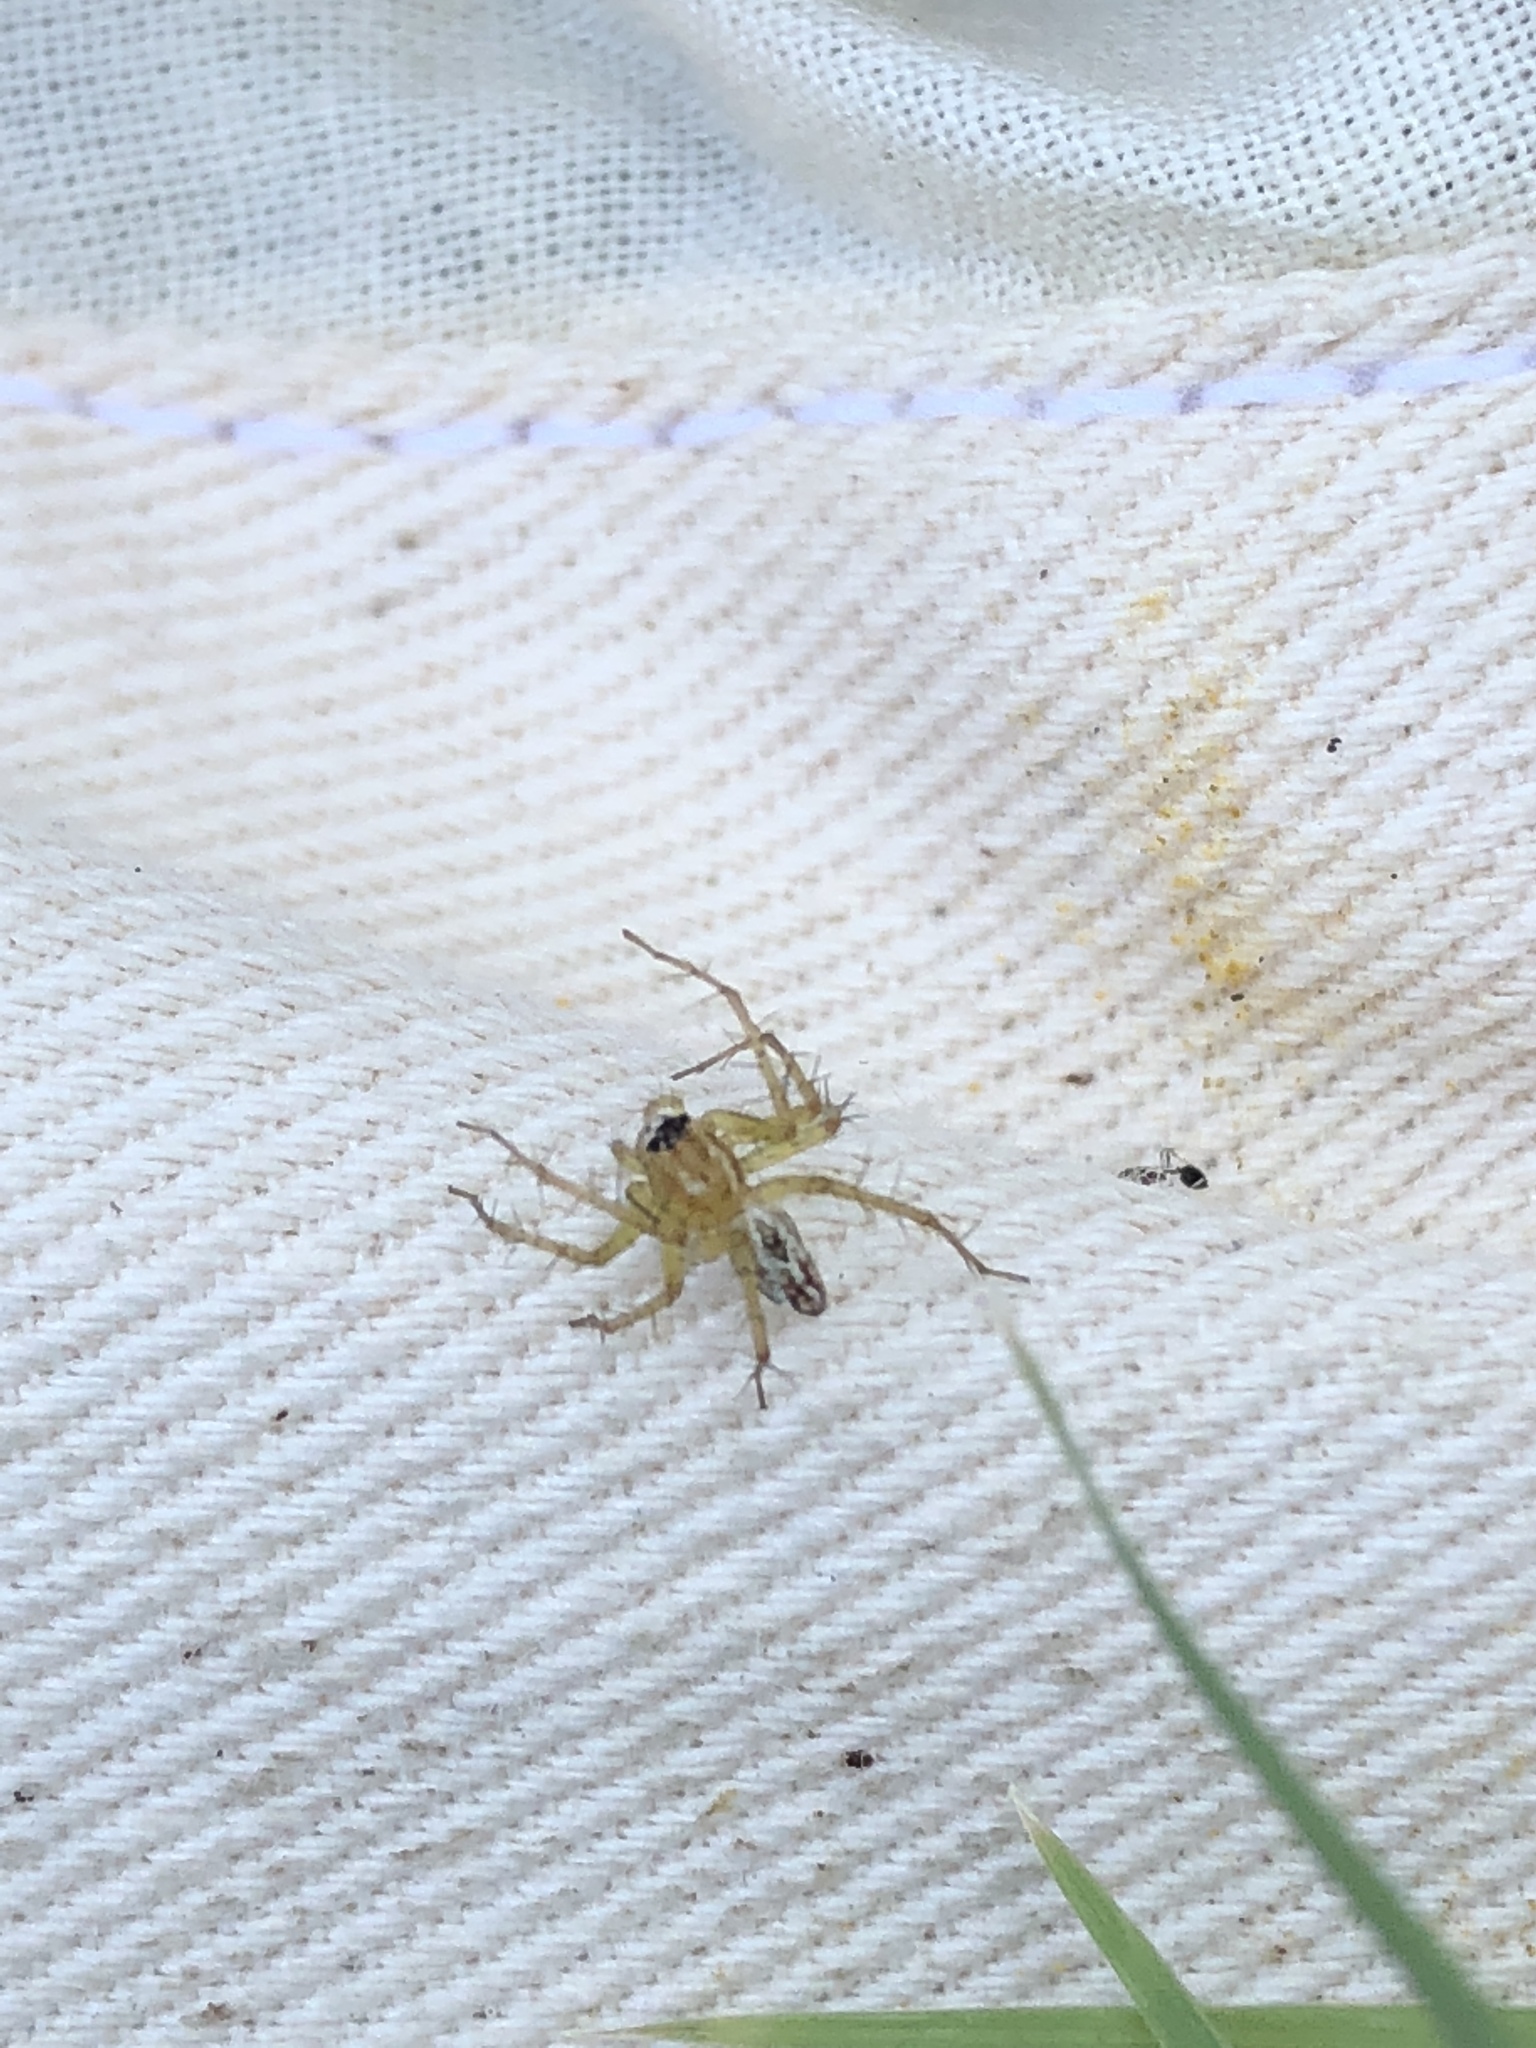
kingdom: Animalia
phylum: Arthropoda
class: Arachnida
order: Araneae
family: Oxyopidae
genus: Oxyopes
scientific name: Oxyopes salticus
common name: Lynx spiders
